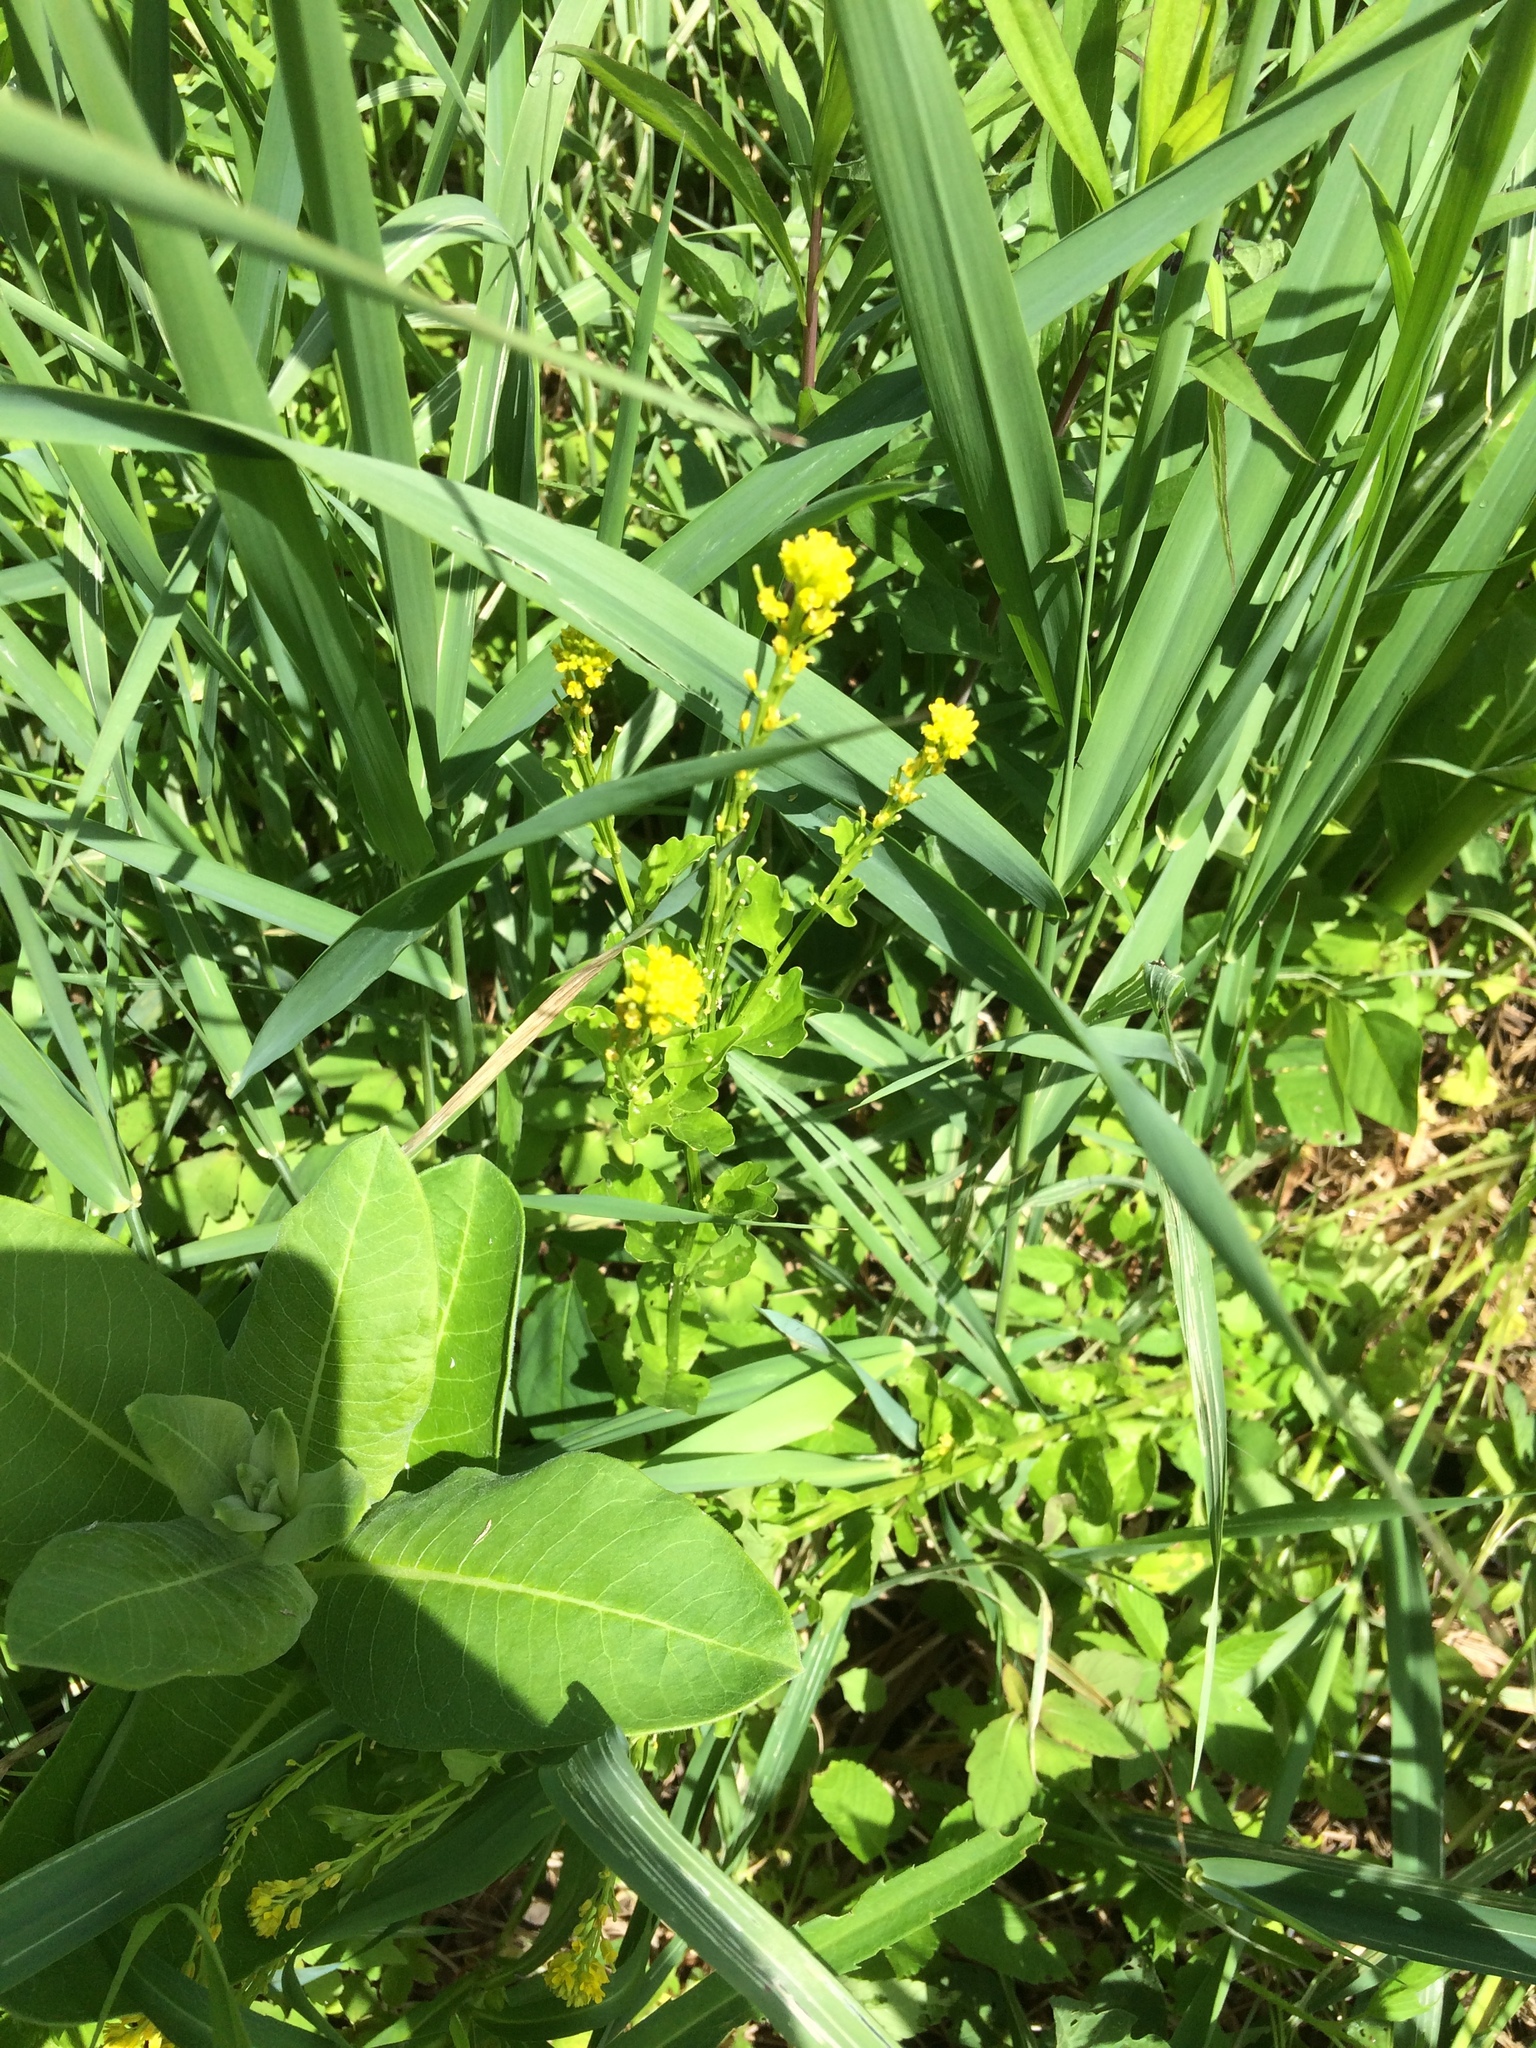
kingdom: Plantae
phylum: Tracheophyta
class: Magnoliopsida
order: Brassicales
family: Brassicaceae
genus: Barbarea
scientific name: Barbarea vulgaris
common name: Cressy-greens
